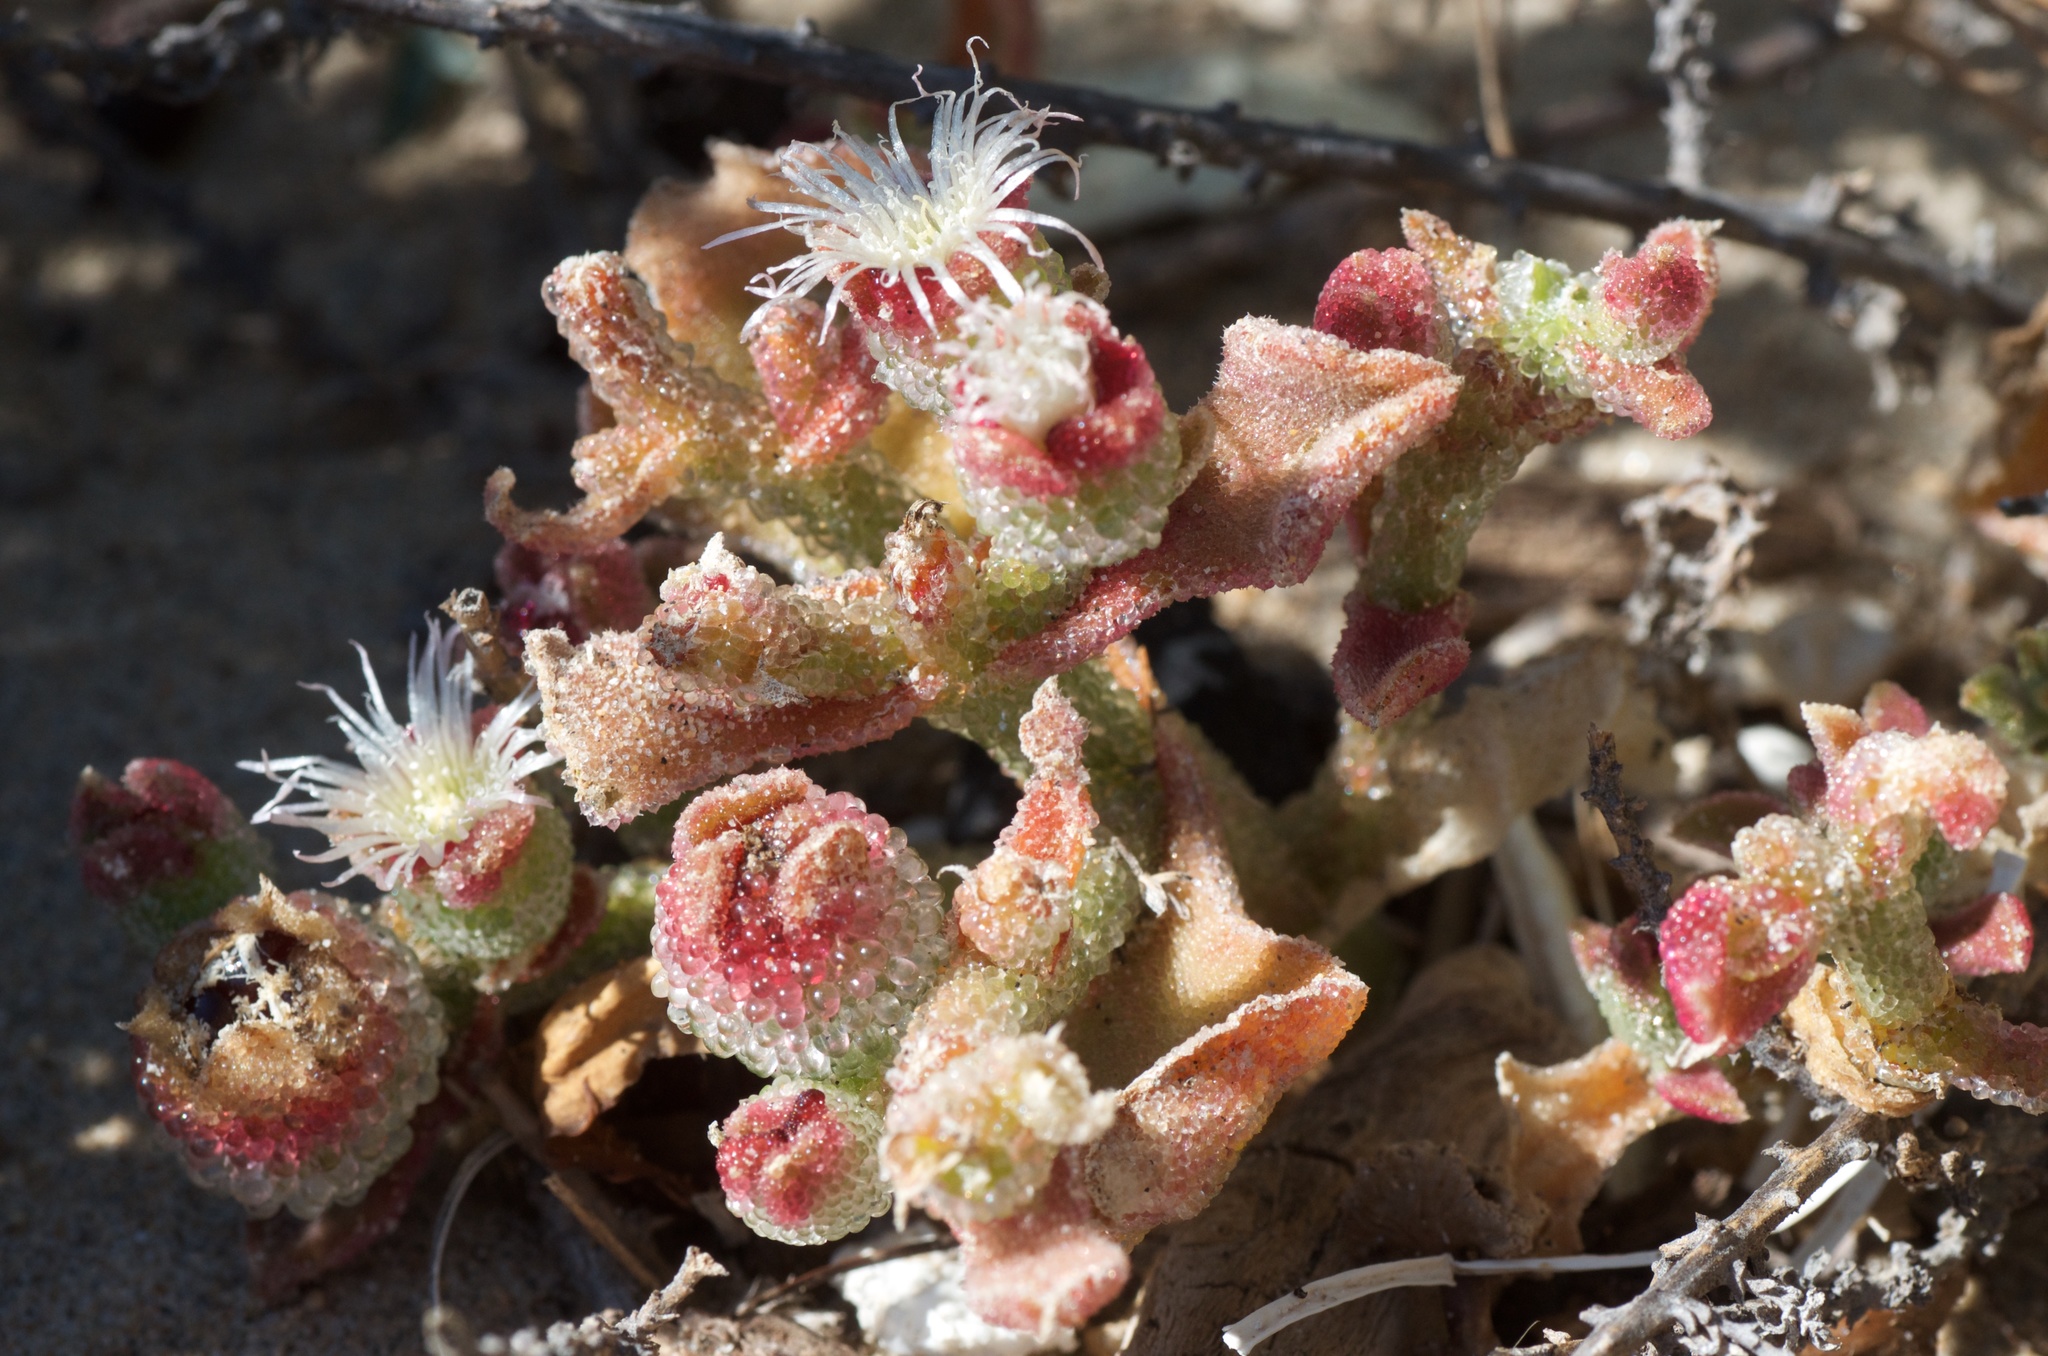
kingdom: Plantae
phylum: Tracheophyta
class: Magnoliopsida
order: Caryophyllales
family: Aizoaceae
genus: Mesembryanthemum
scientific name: Mesembryanthemum crystallinum
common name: Common iceplant
